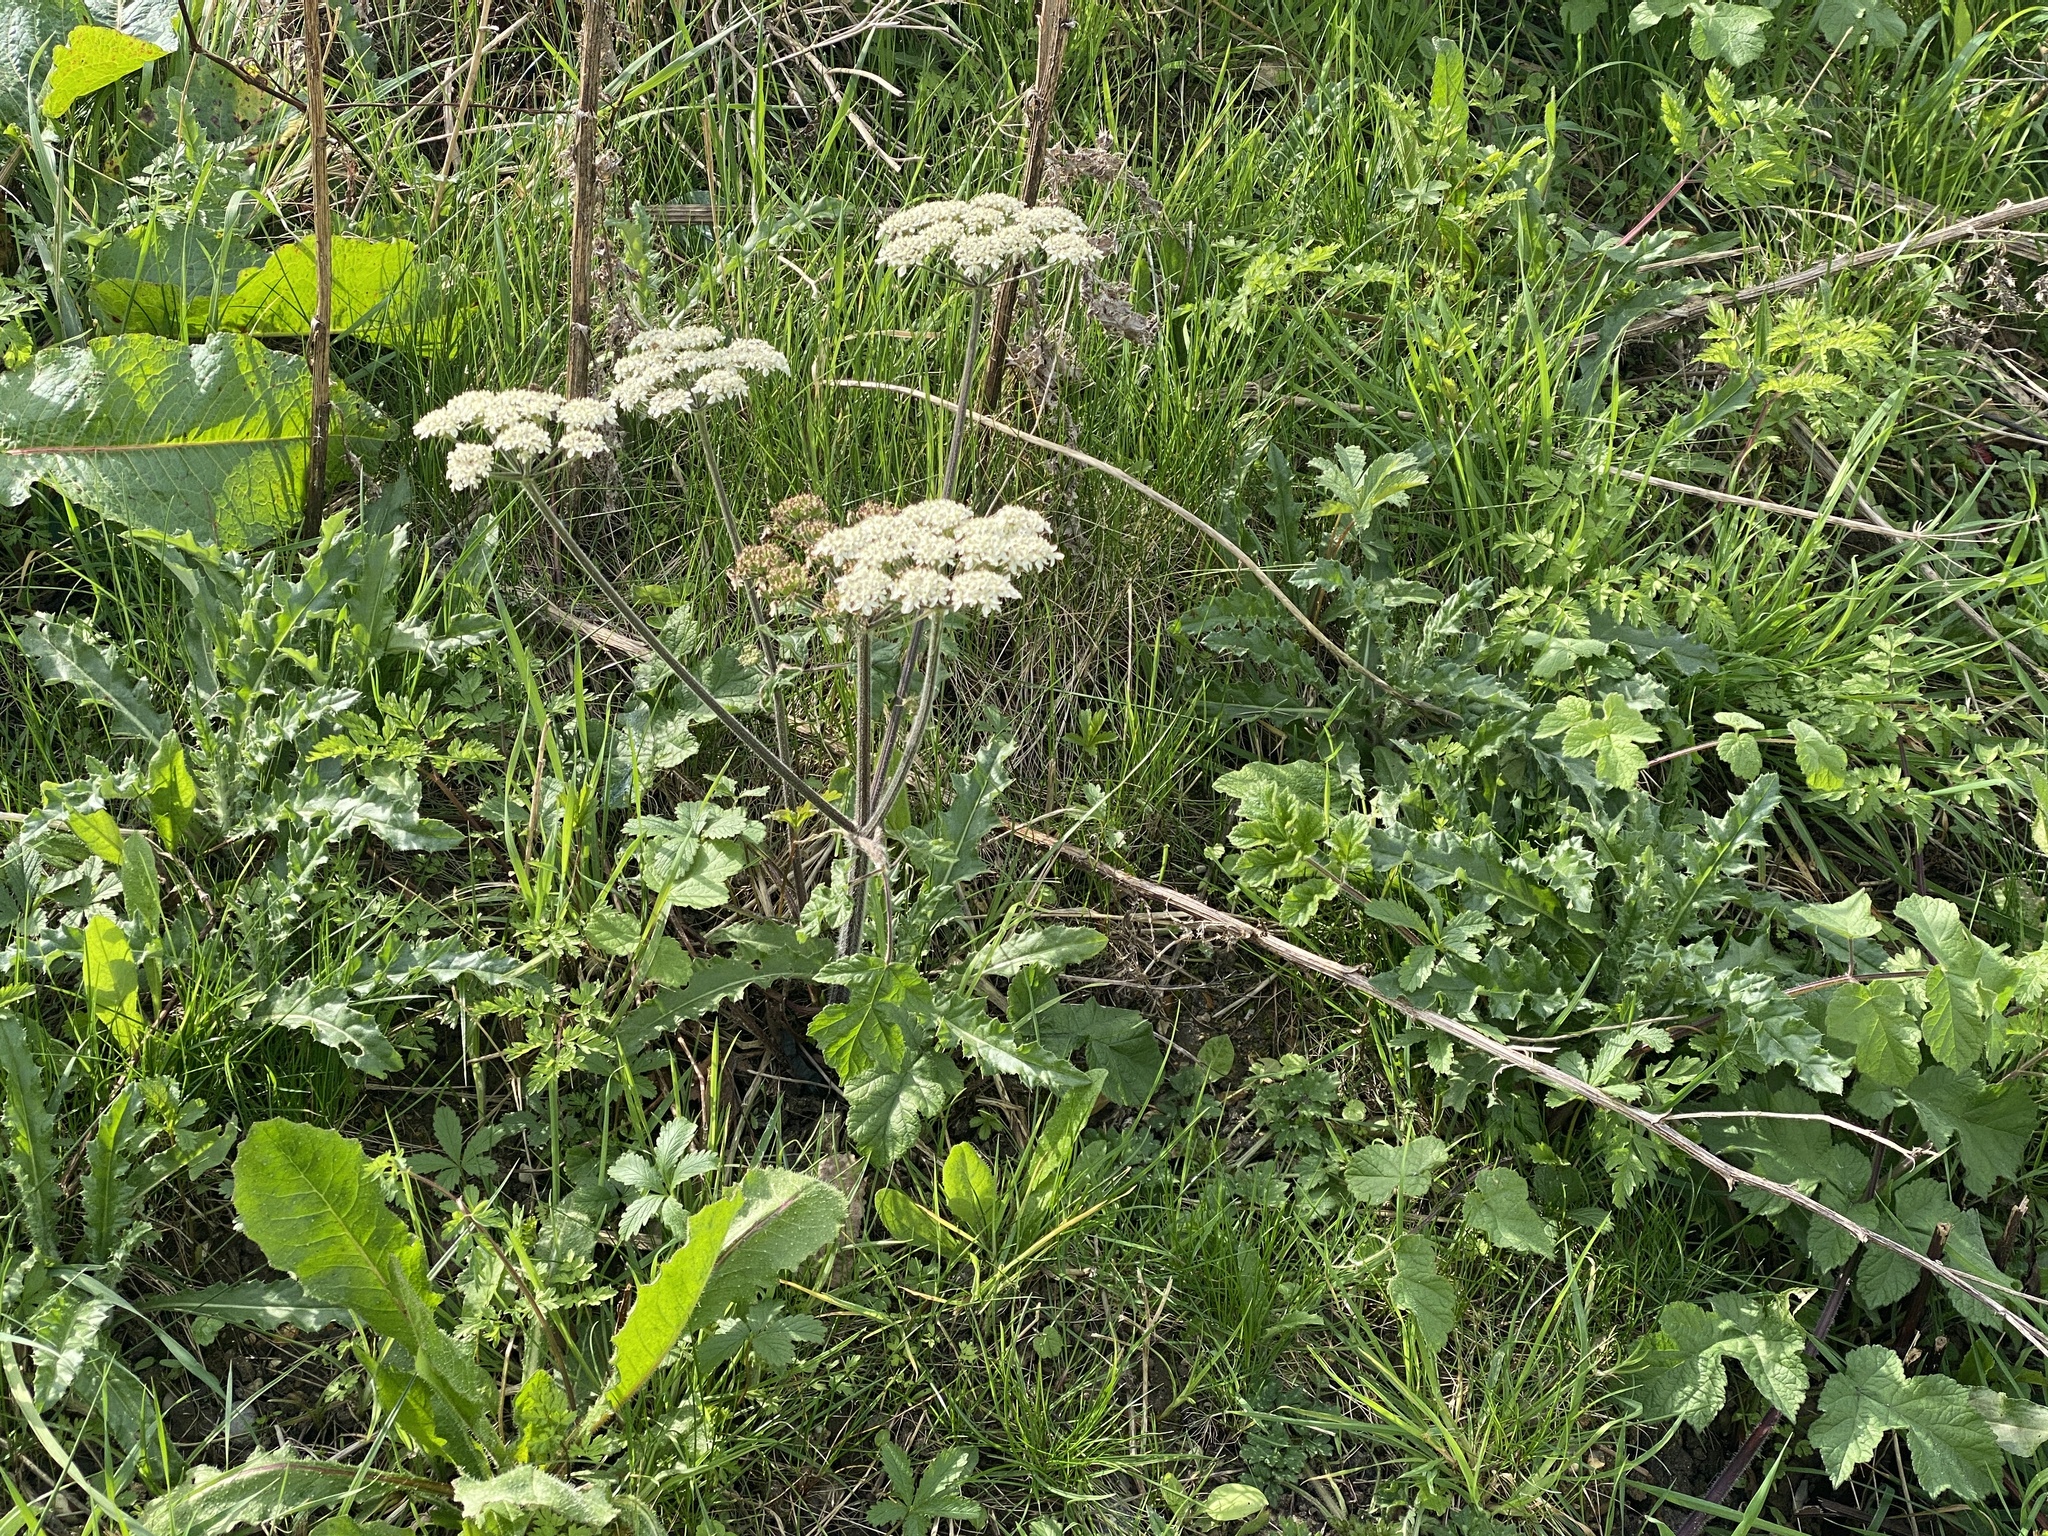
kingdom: Plantae
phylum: Tracheophyta
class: Magnoliopsida
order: Apiales
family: Apiaceae
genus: Heracleum
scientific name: Heracleum sphondylium
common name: Hogweed
